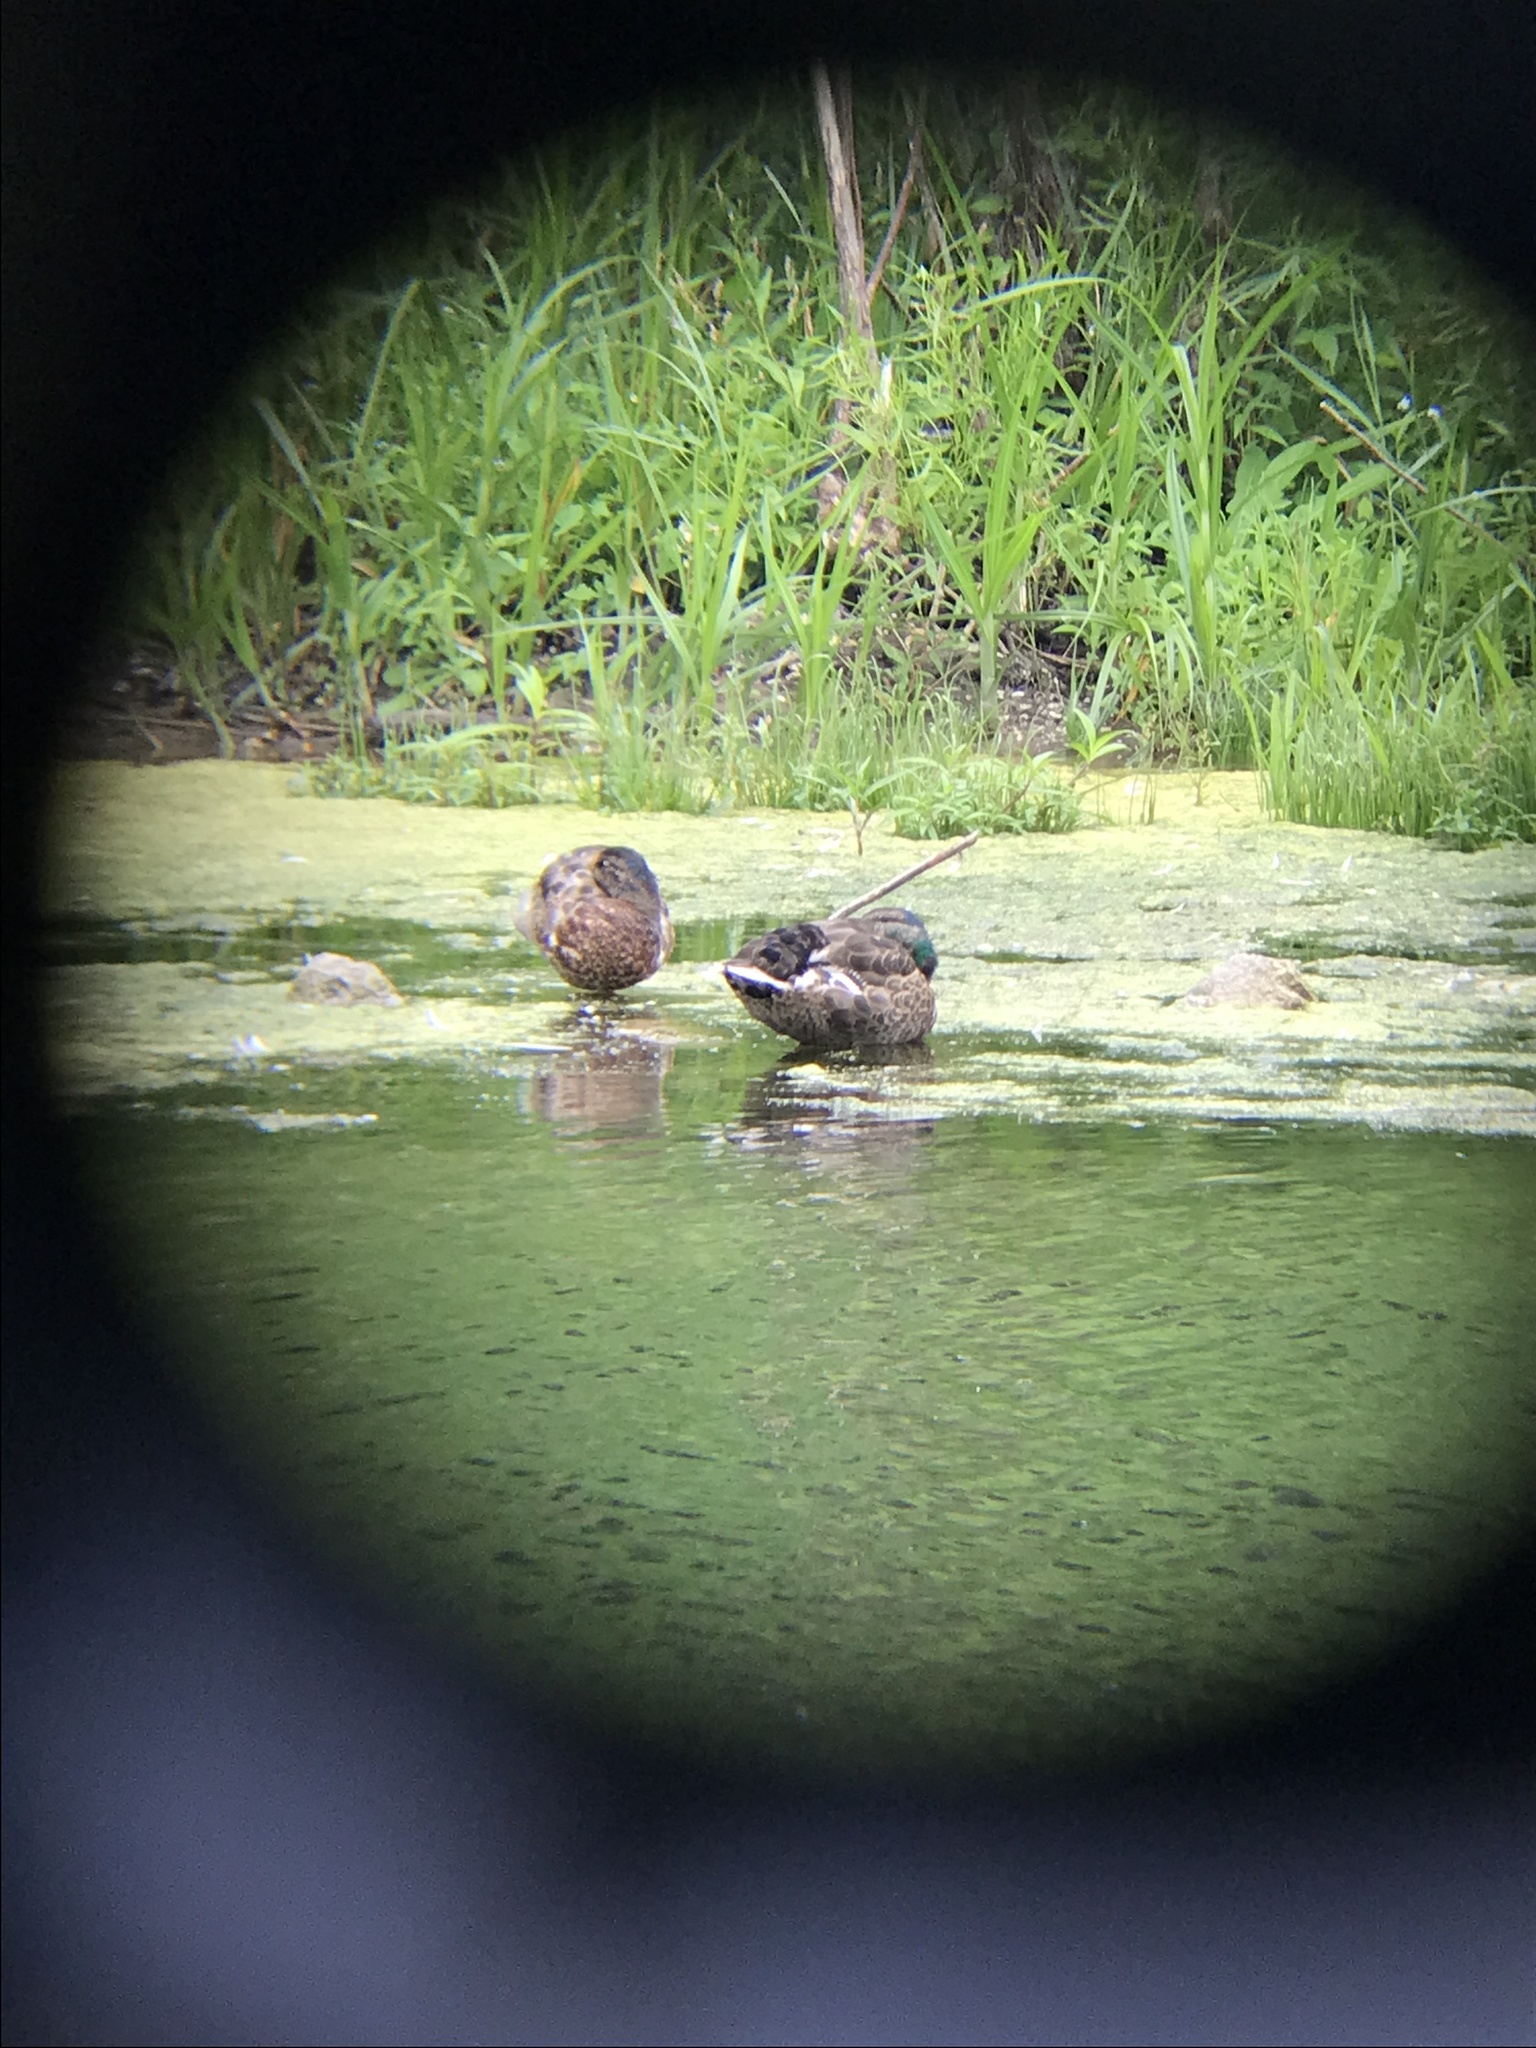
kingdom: Animalia
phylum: Chordata
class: Aves
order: Anseriformes
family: Anatidae
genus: Anas
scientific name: Anas
